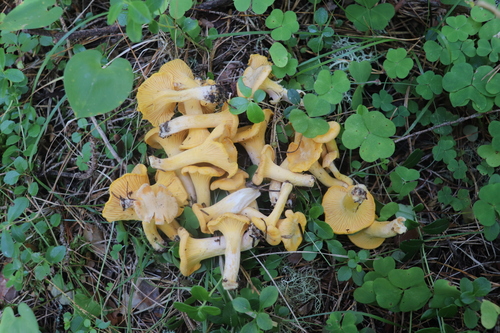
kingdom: Fungi
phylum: Basidiomycota
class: Agaricomycetes
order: Cantharellales
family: Hydnaceae
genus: Cantharellus
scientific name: Cantharellus cibarius
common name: Chanterelle
